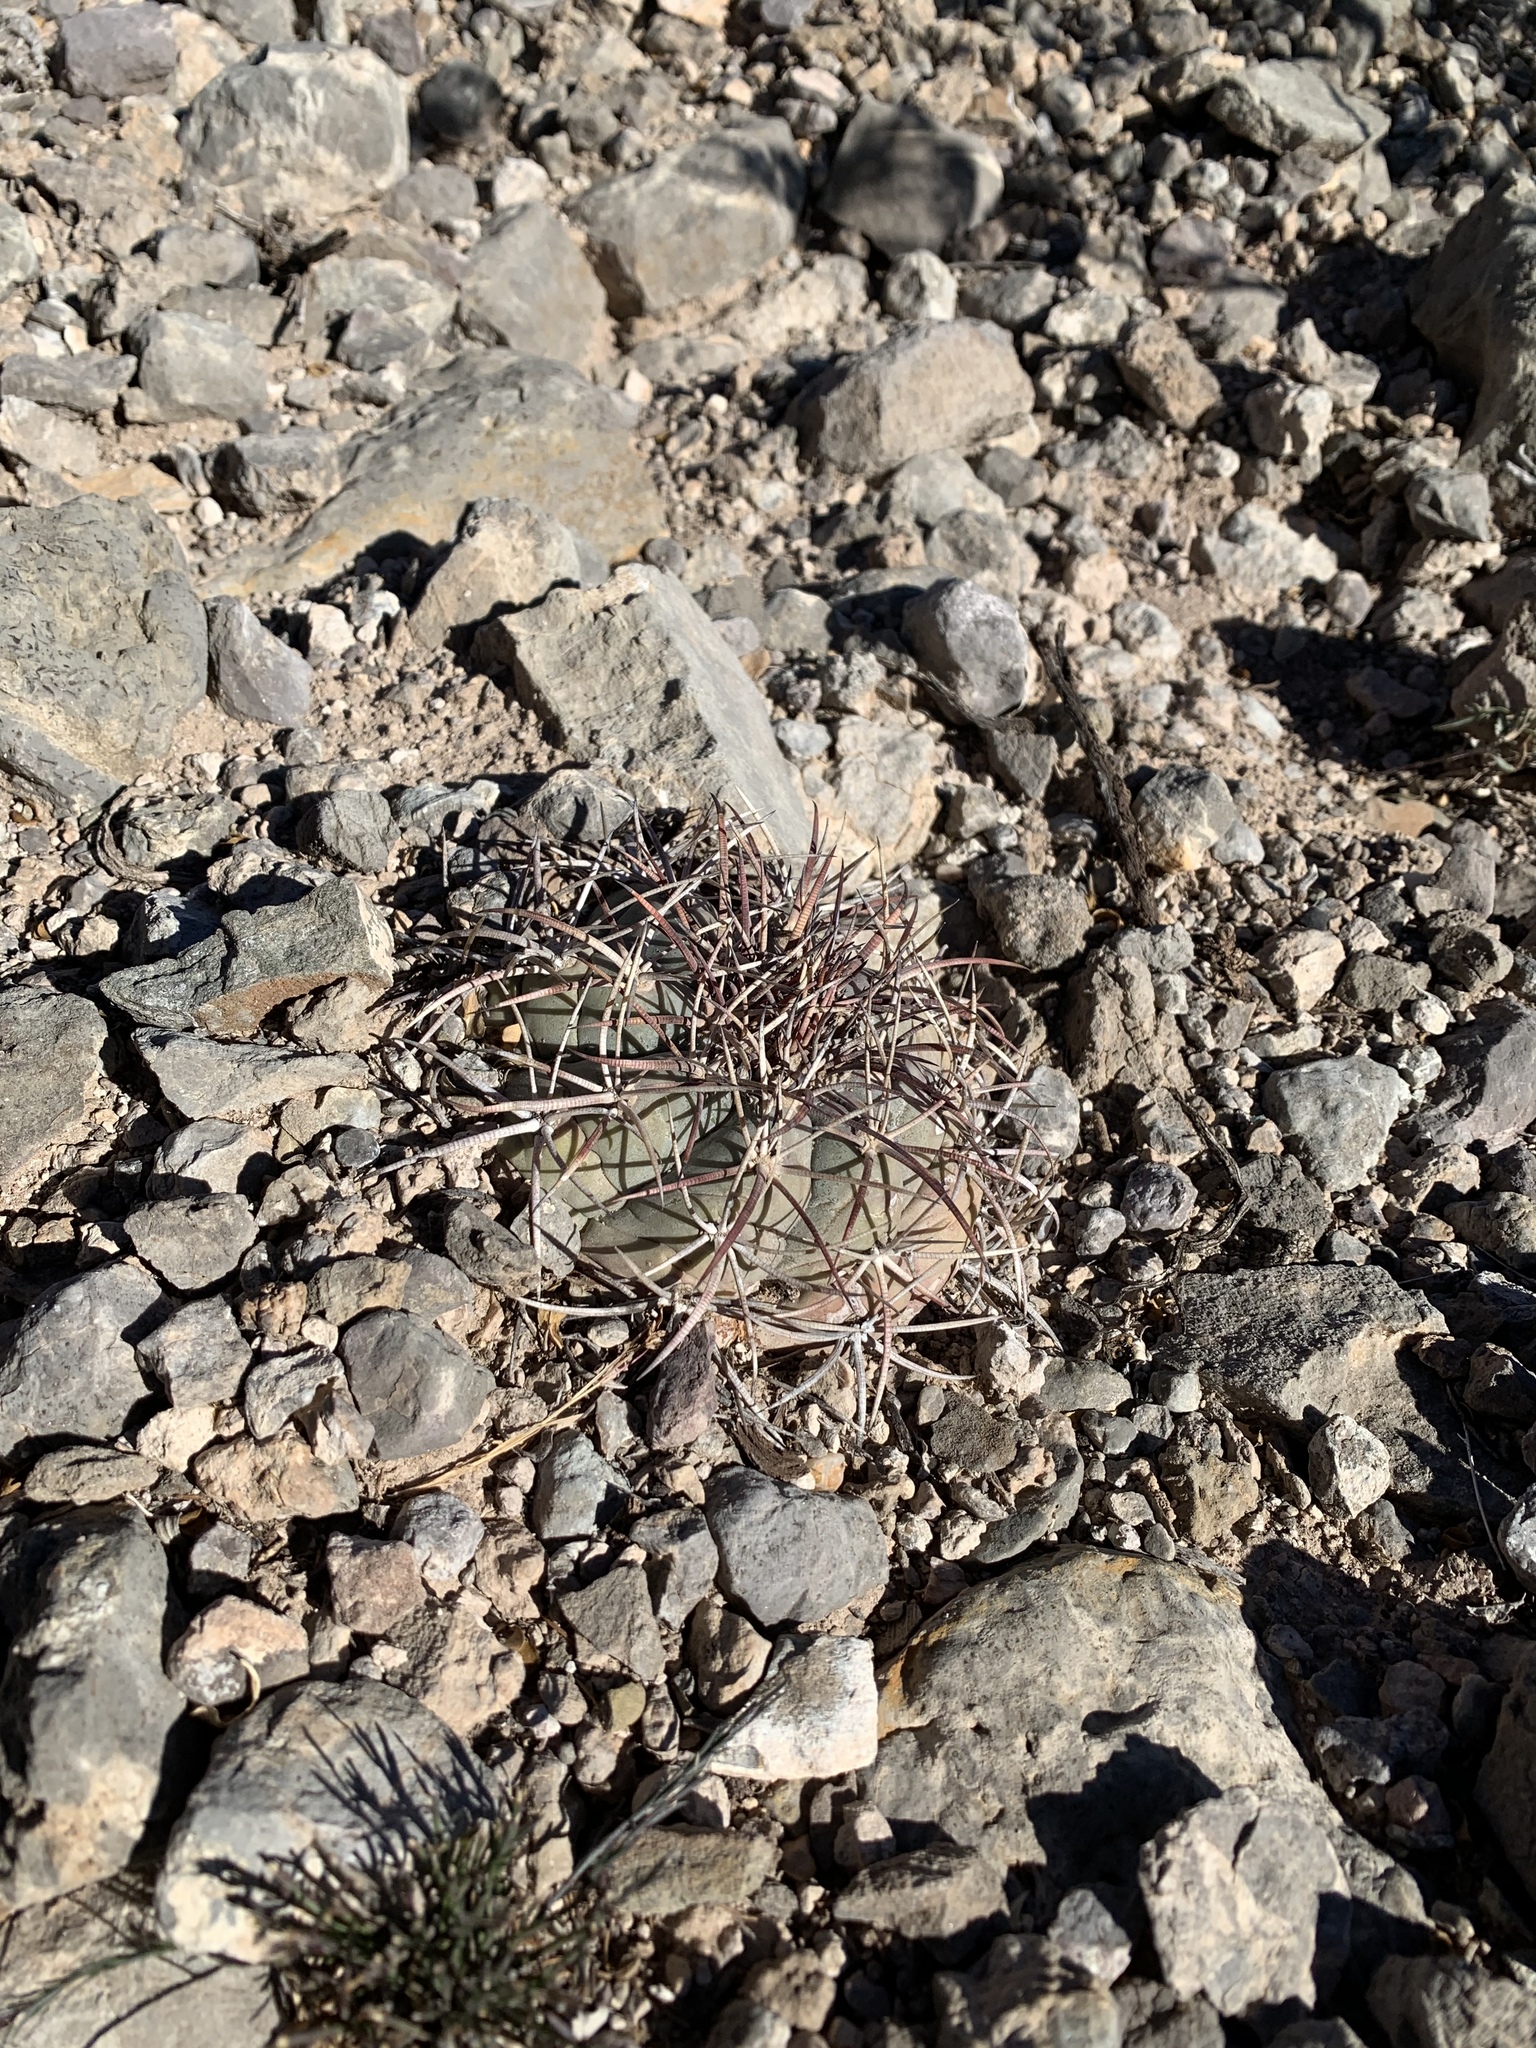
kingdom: Plantae
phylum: Tracheophyta
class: Magnoliopsida
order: Caryophyllales
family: Cactaceae
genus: Echinocactus
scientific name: Echinocactus horizonthalonius
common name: Devilshead
